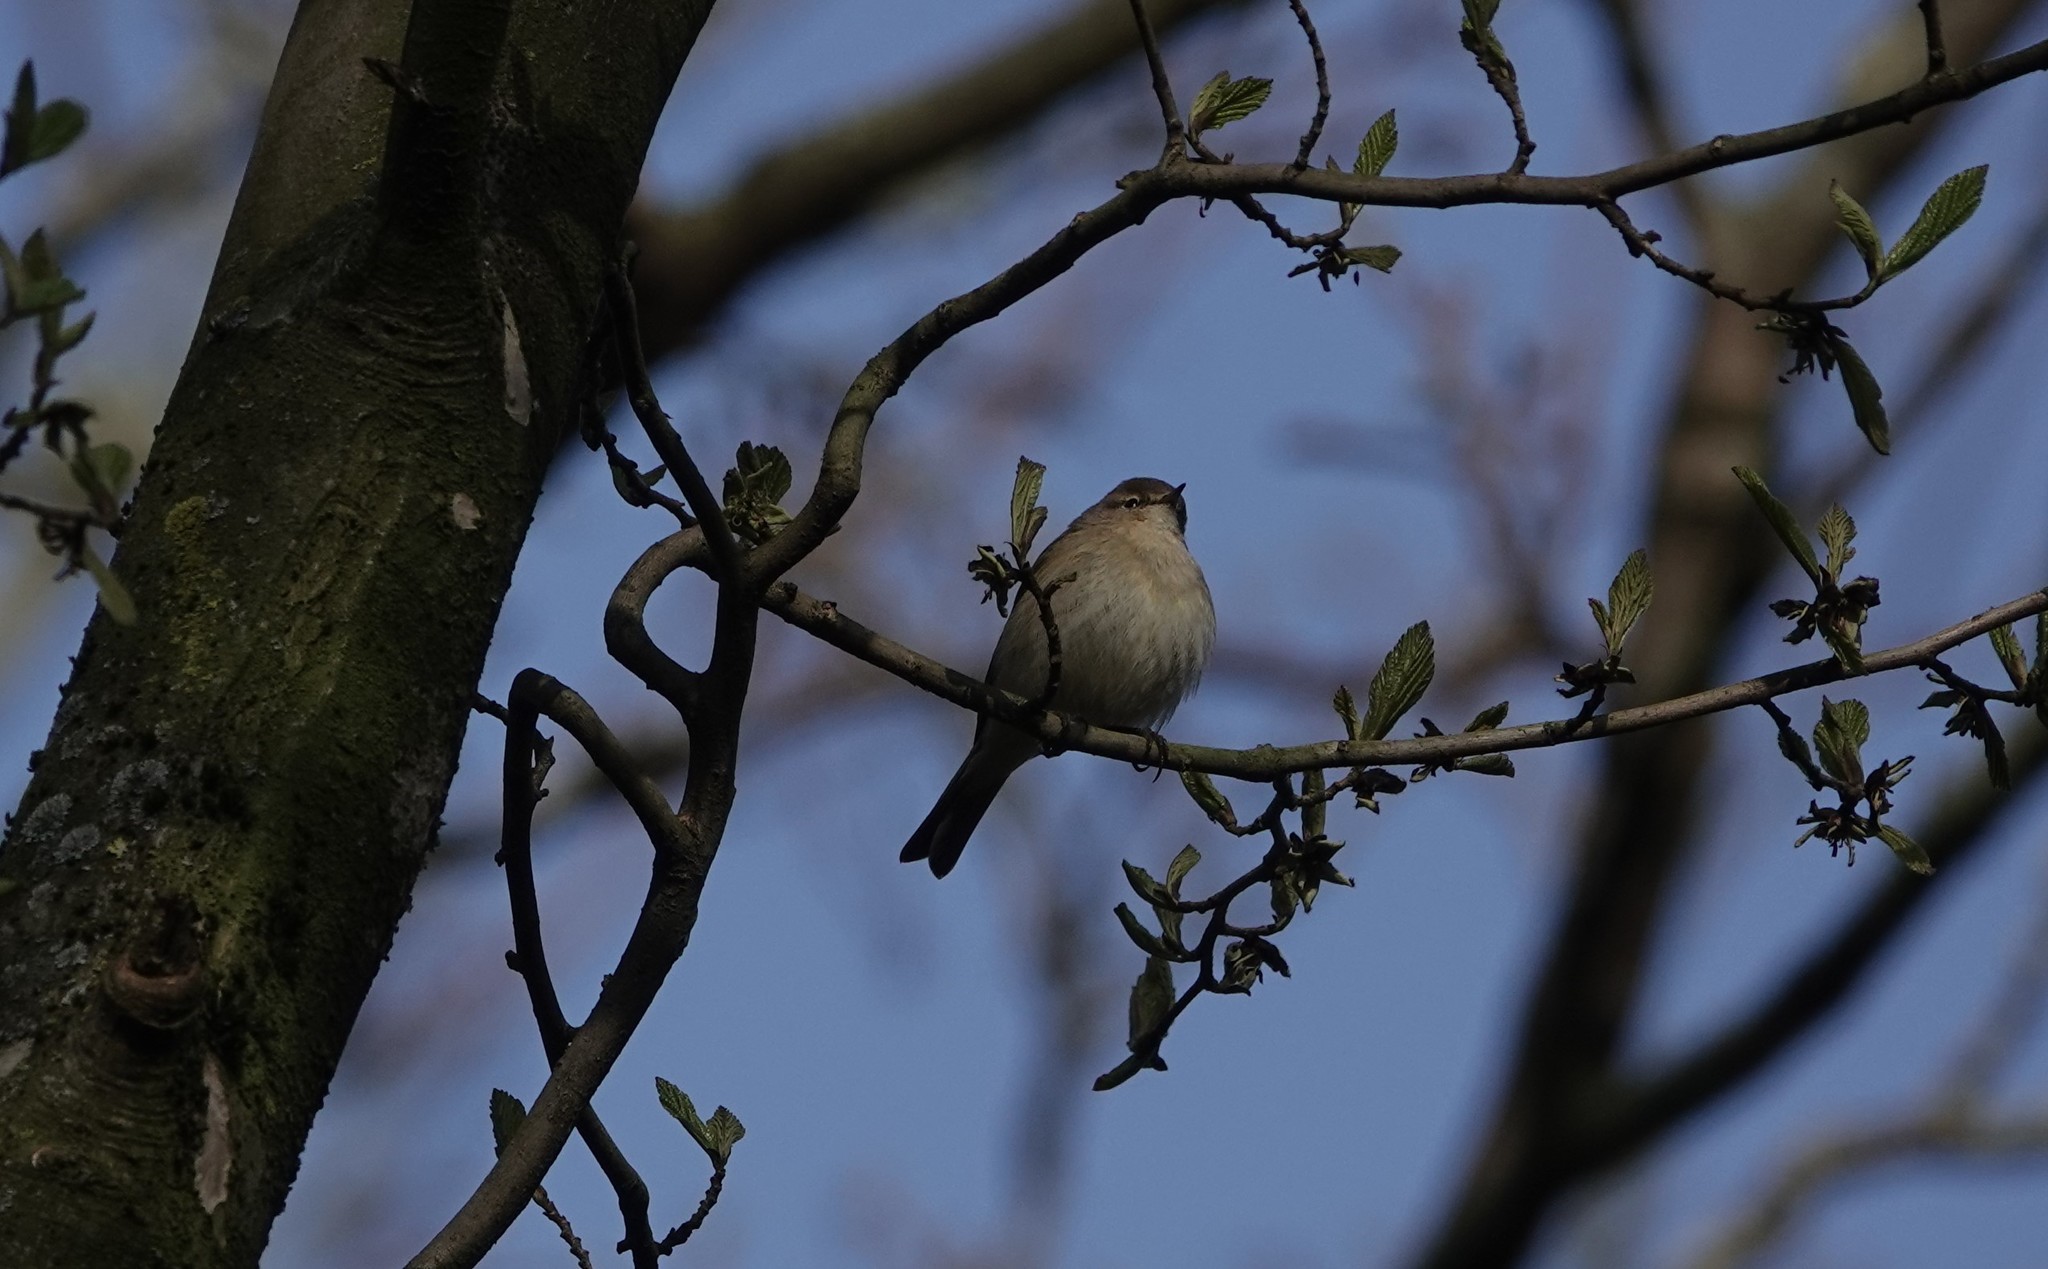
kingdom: Animalia
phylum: Chordata
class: Aves
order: Passeriformes
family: Phylloscopidae
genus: Phylloscopus
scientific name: Phylloscopus collybita
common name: Common chiffchaff
